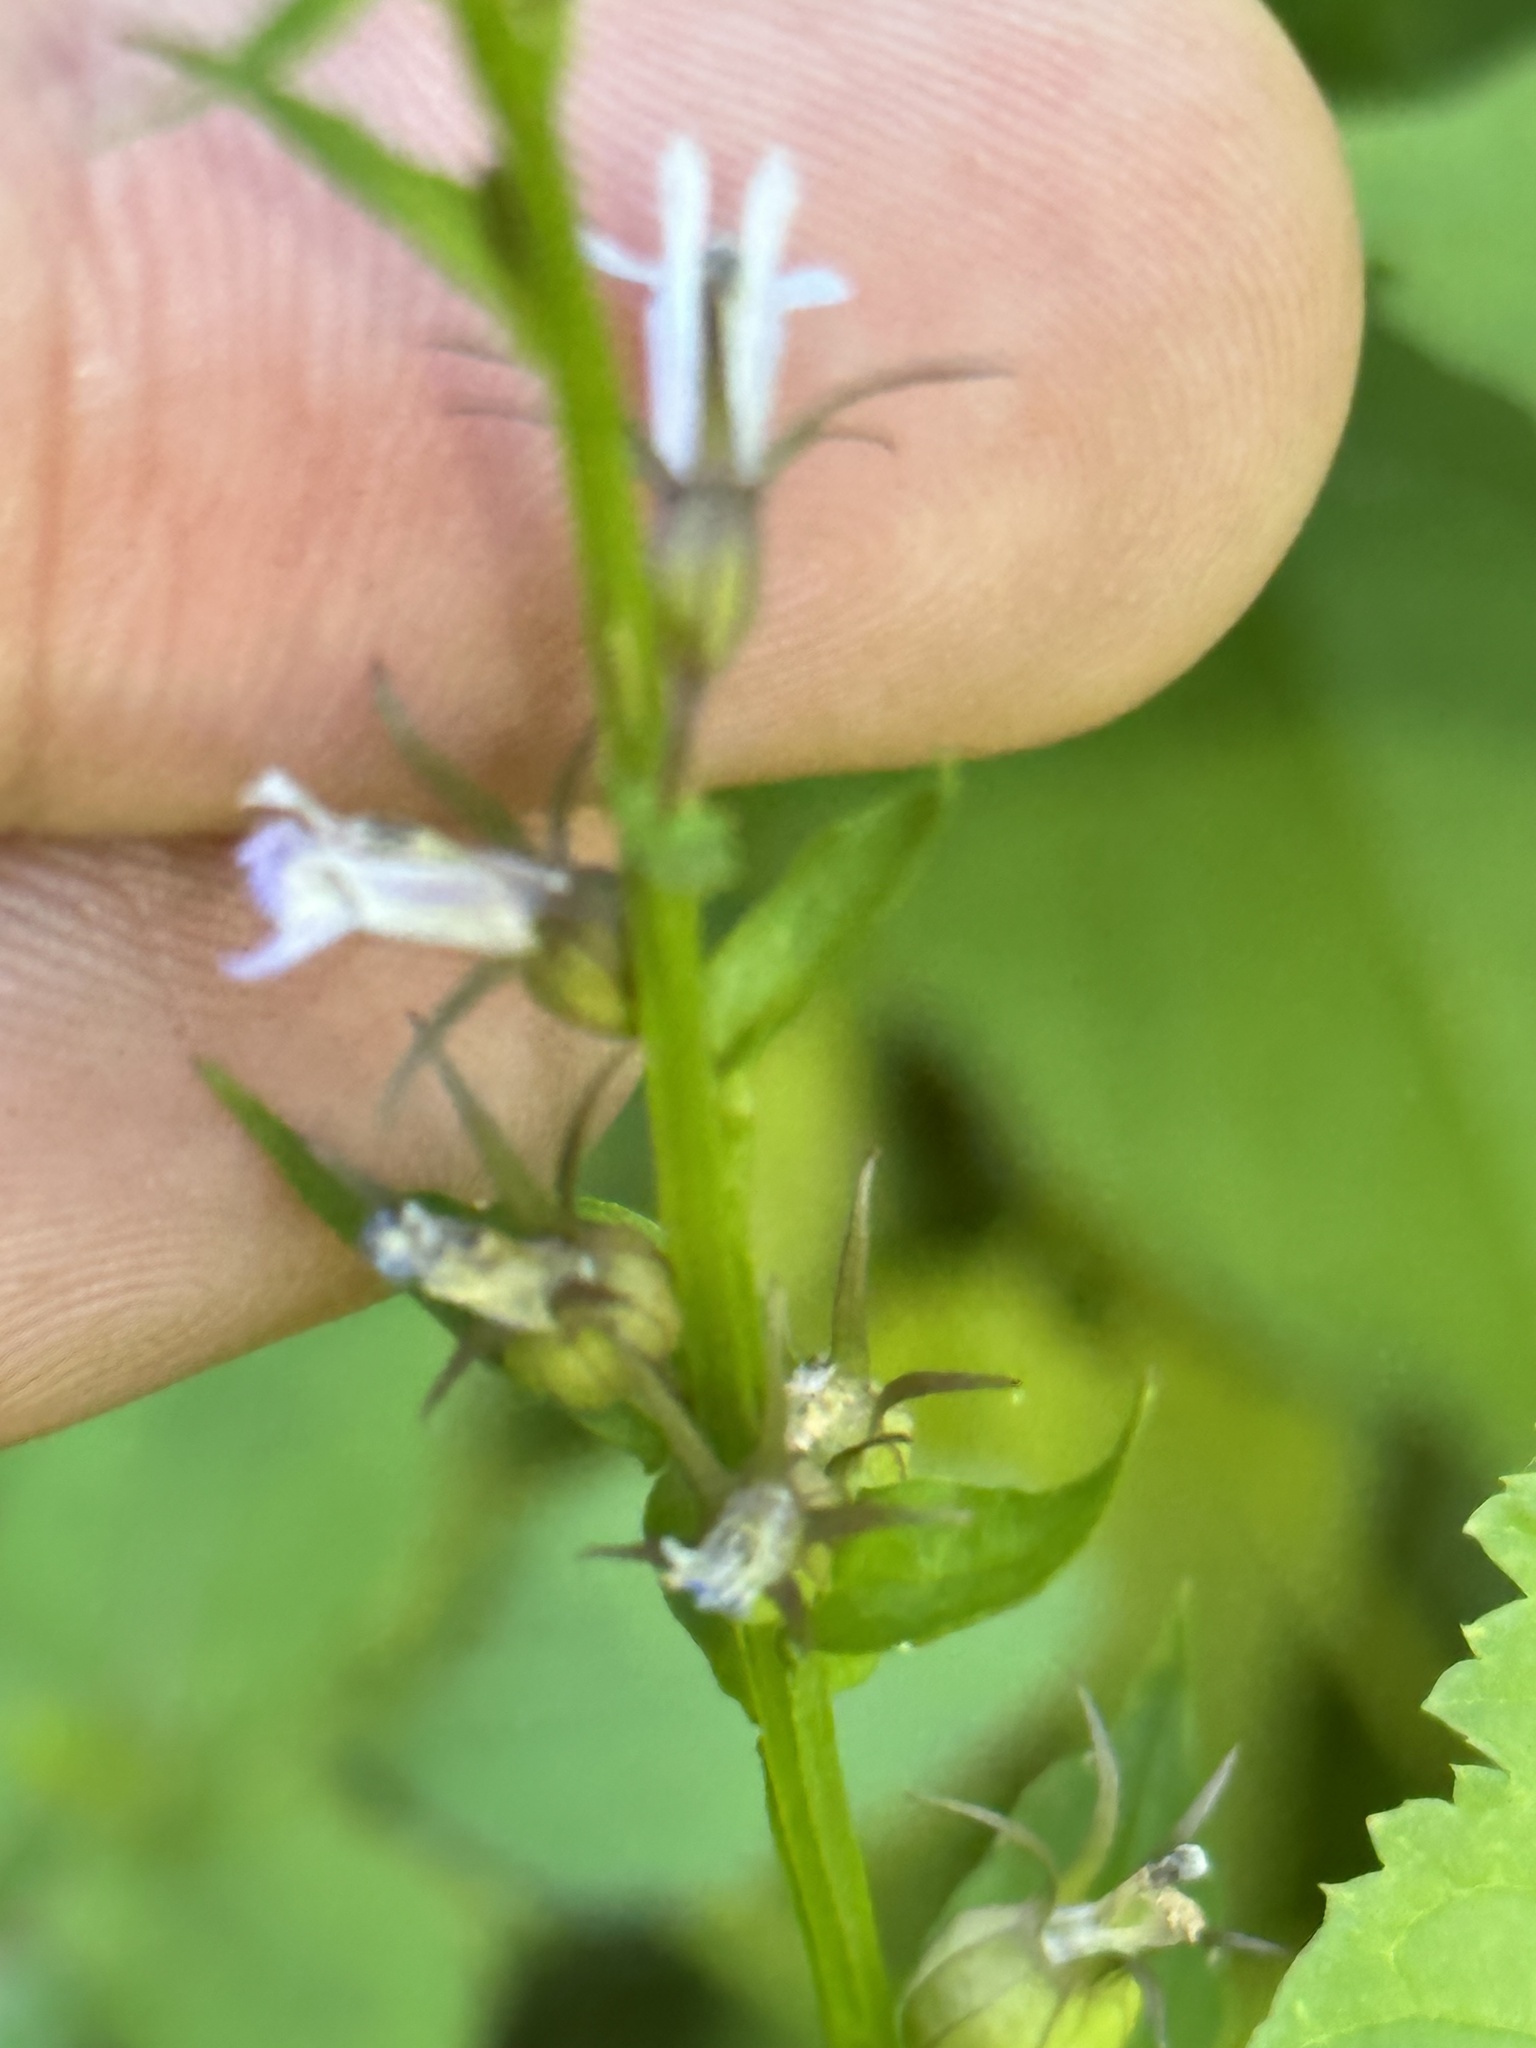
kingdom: Plantae
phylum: Tracheophyta
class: Magnoliopsida
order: Asterales
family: Campanulaceae
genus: Lobelia
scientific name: Lobelia inflata
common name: Indian tobacco
